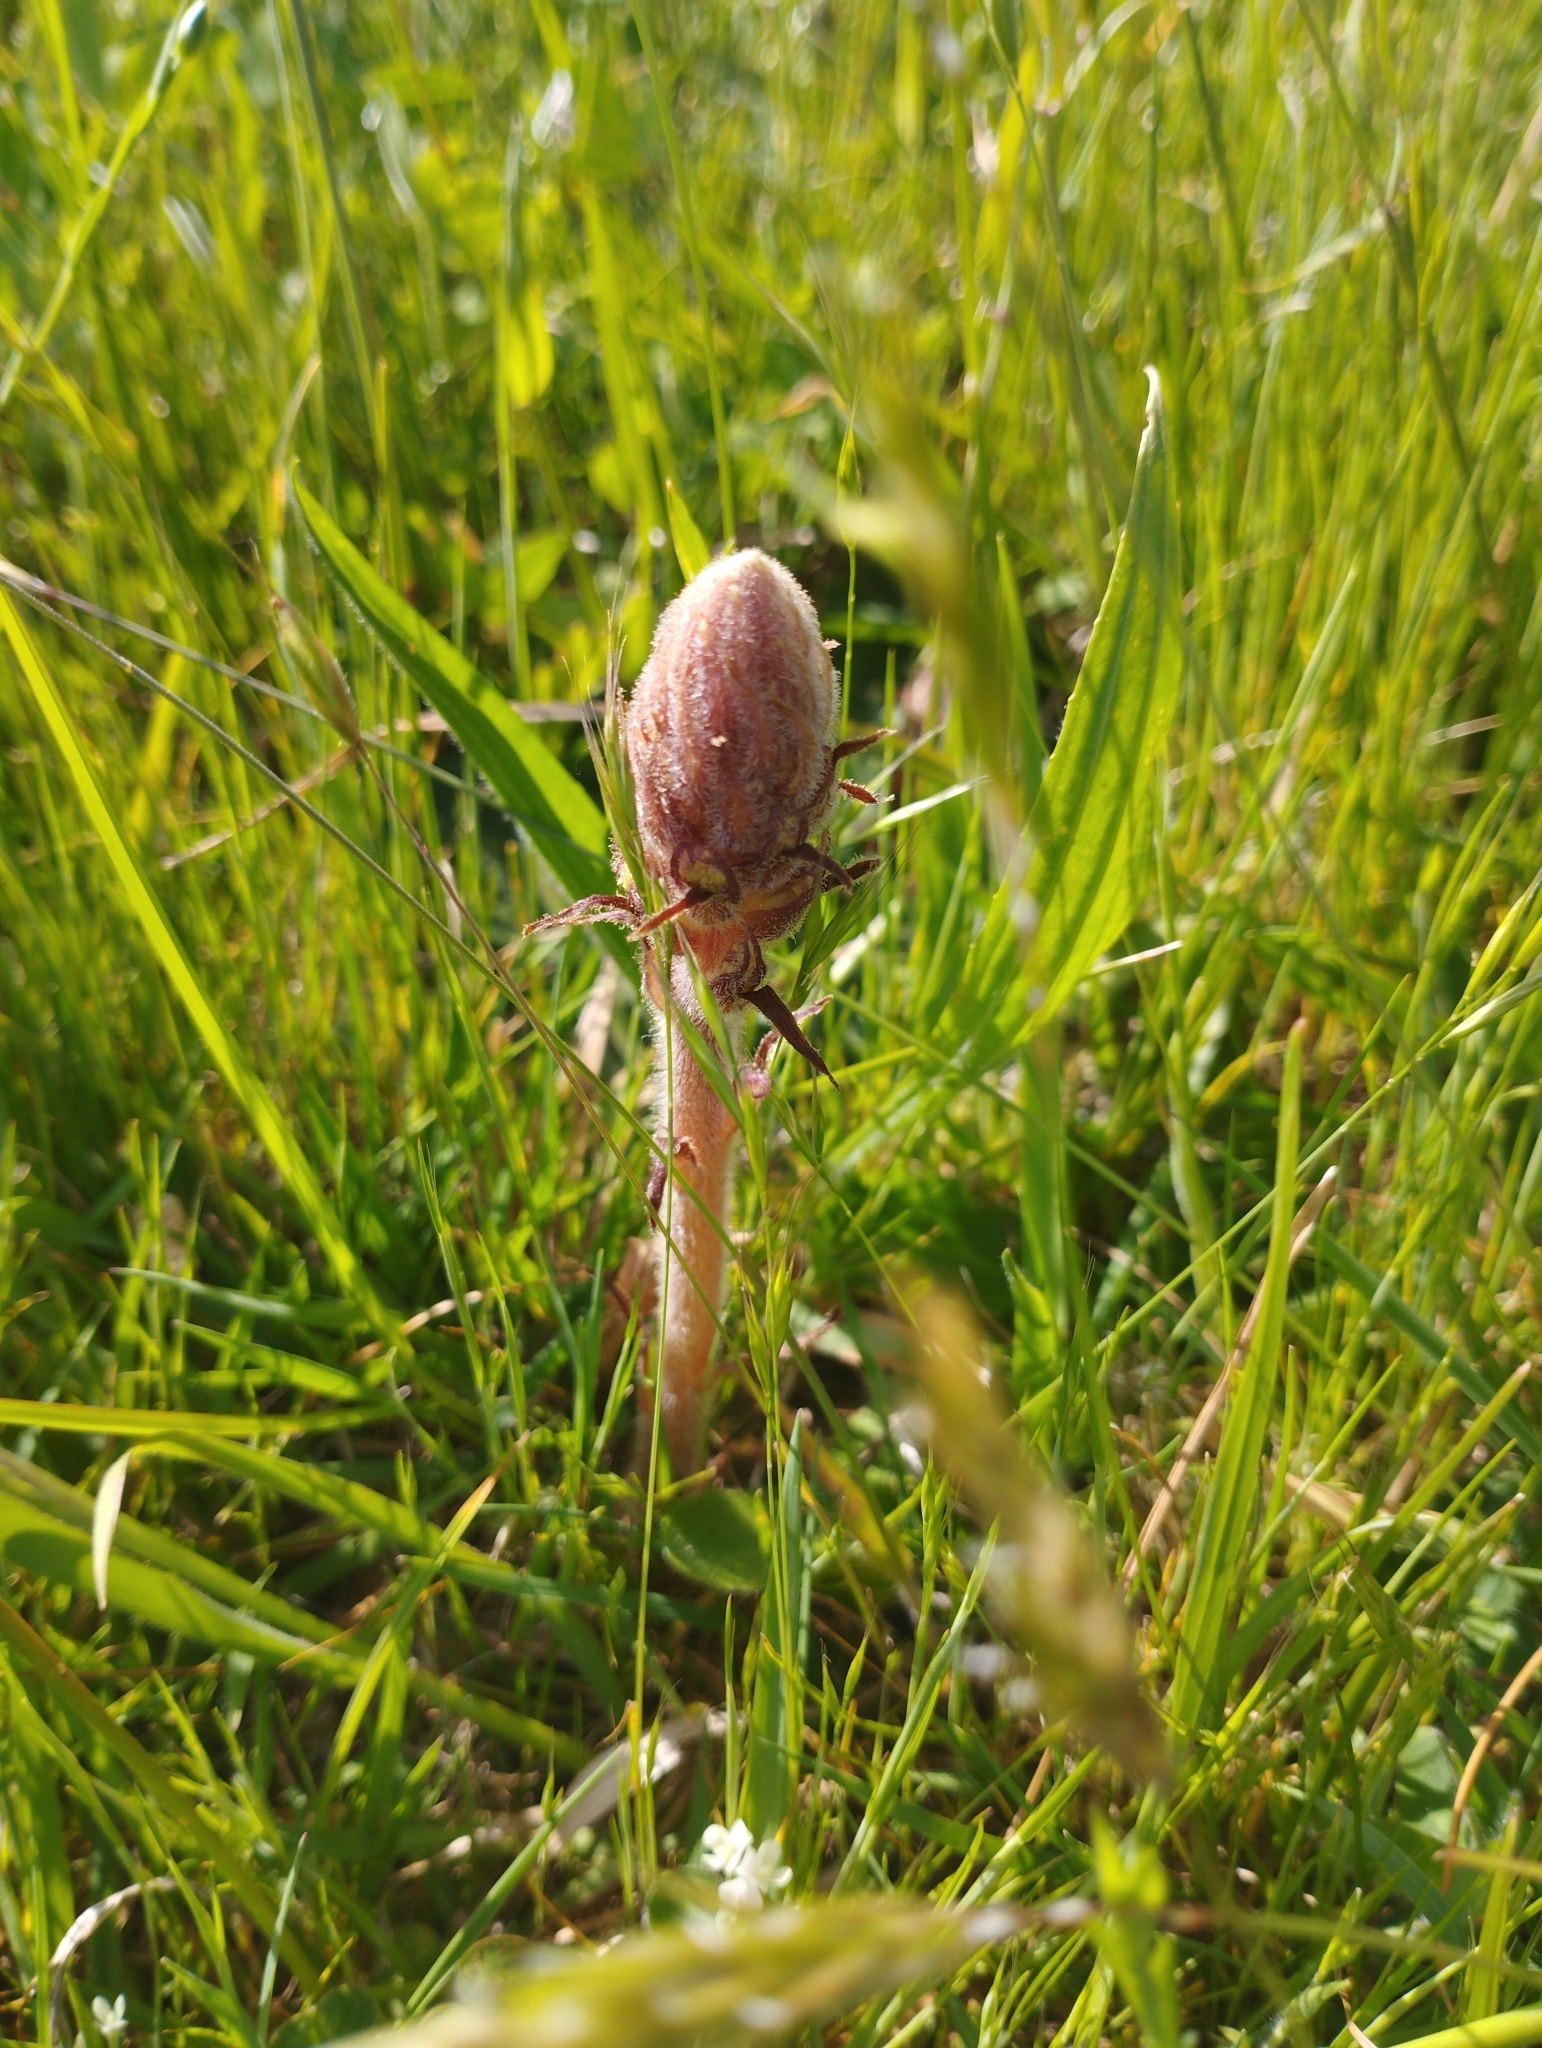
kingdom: Plantae
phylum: Tracheophyta
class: Magnoliopsida
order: Lamiales
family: Orobanchaceae
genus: Orobanche
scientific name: Orobanche minor
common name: Common broomrape
